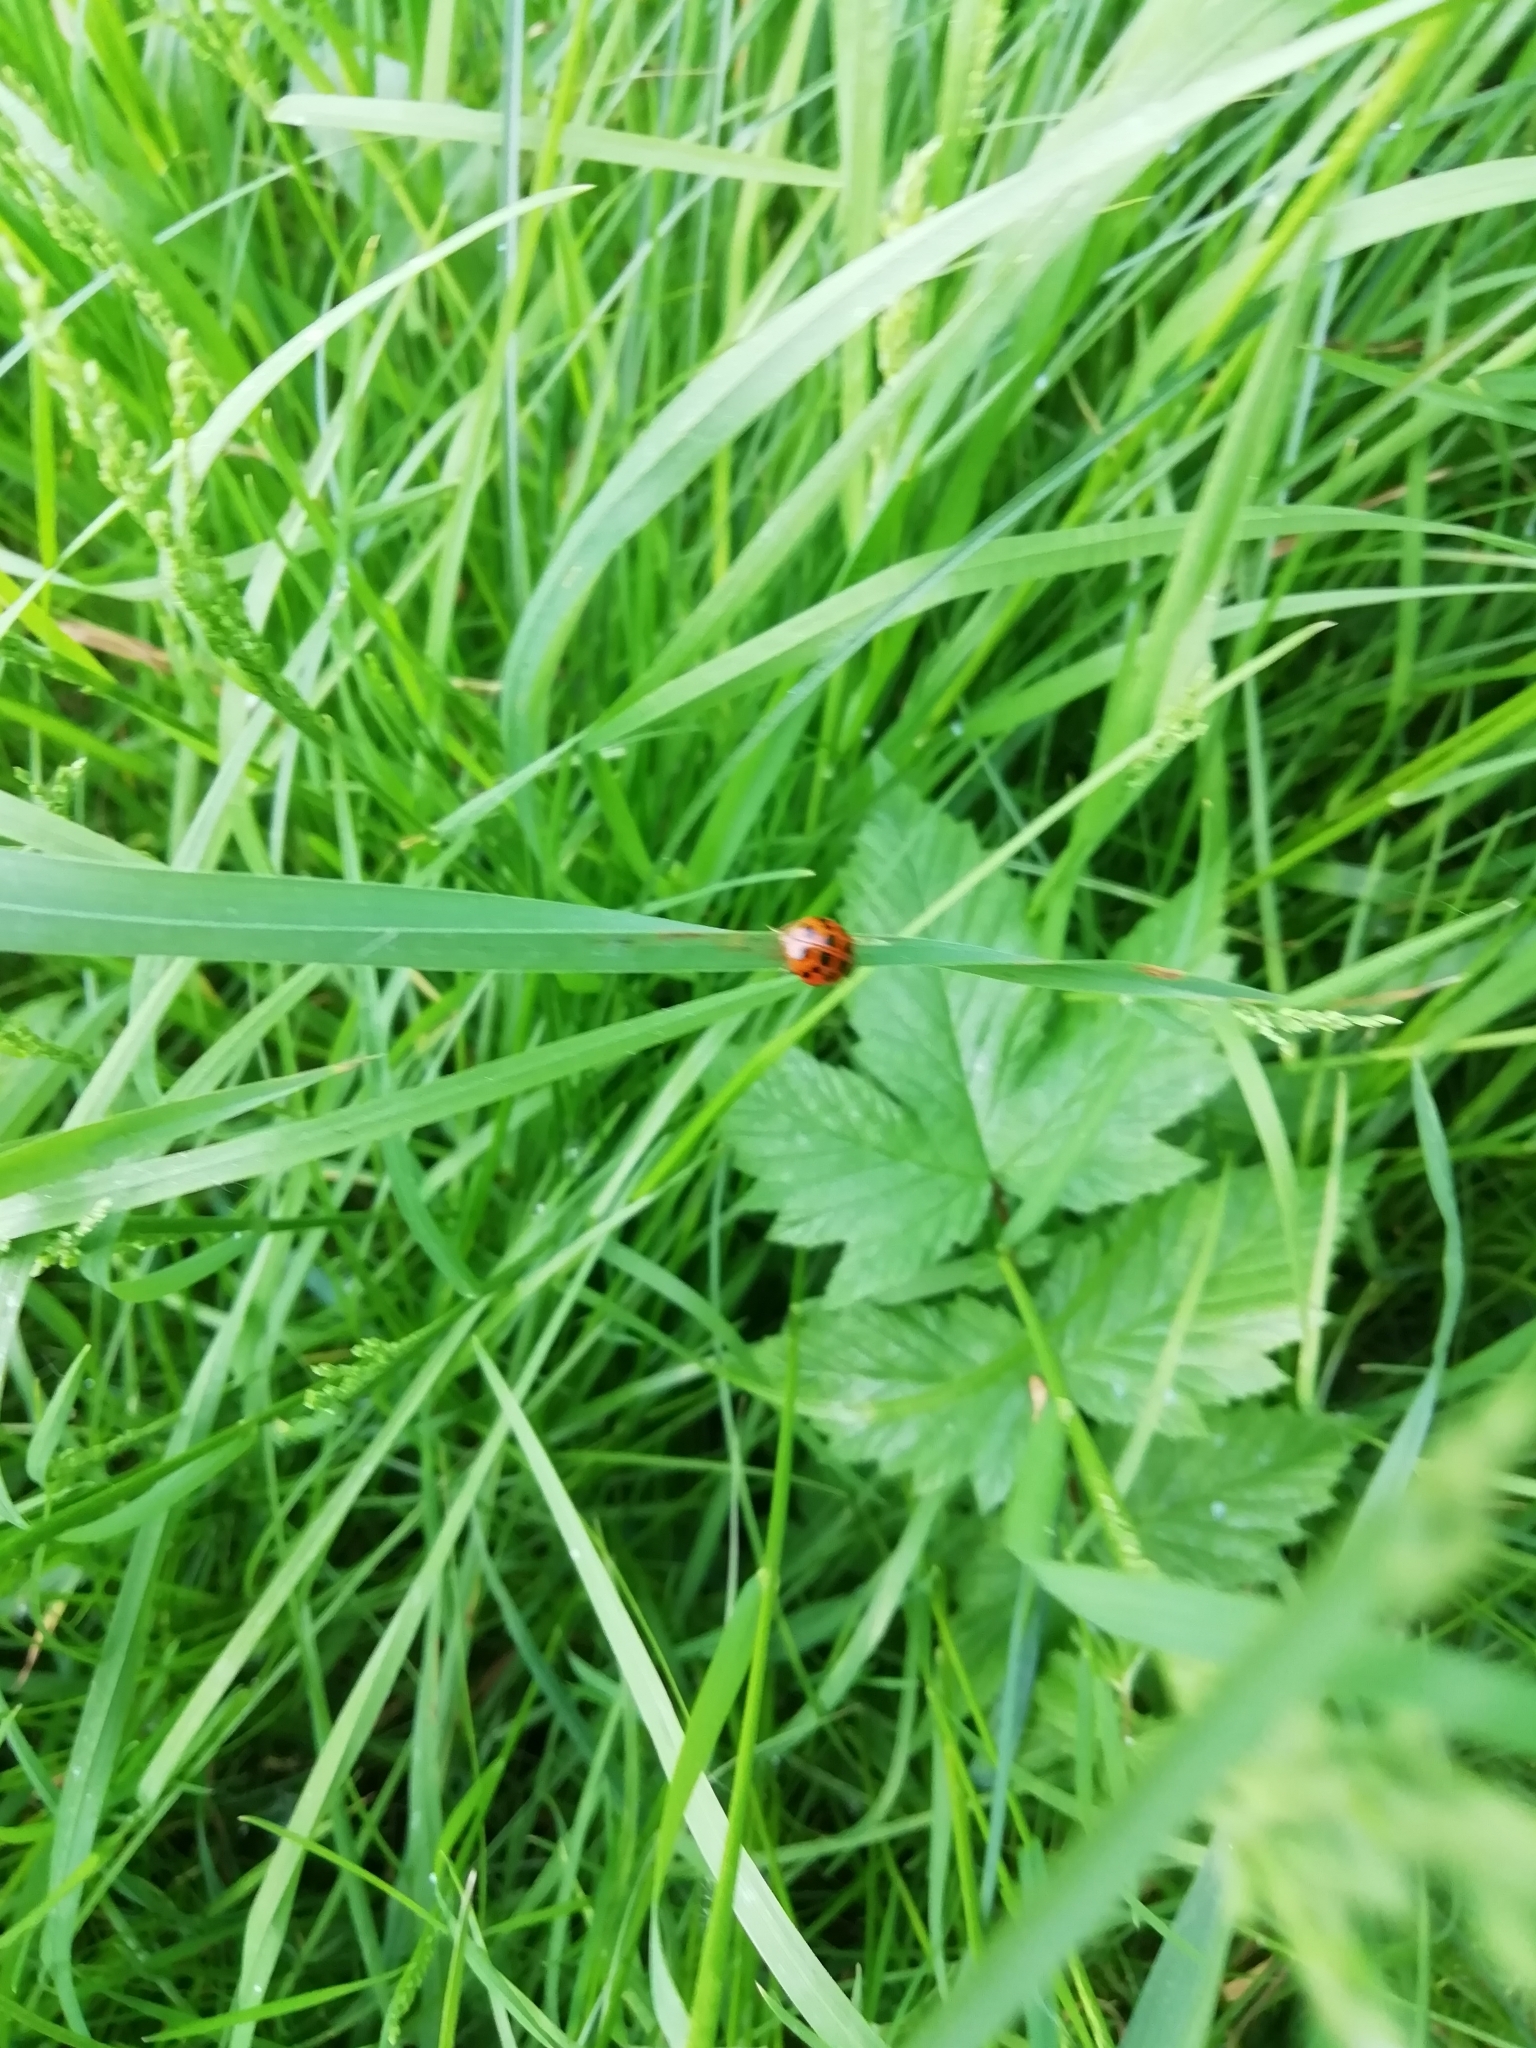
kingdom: Animalia
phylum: Arthropoda
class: Insecta
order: Coleoptera
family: Coccinellidae
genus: Harmonia
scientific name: Harmonia axyridis
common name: Harlequin ladybird
